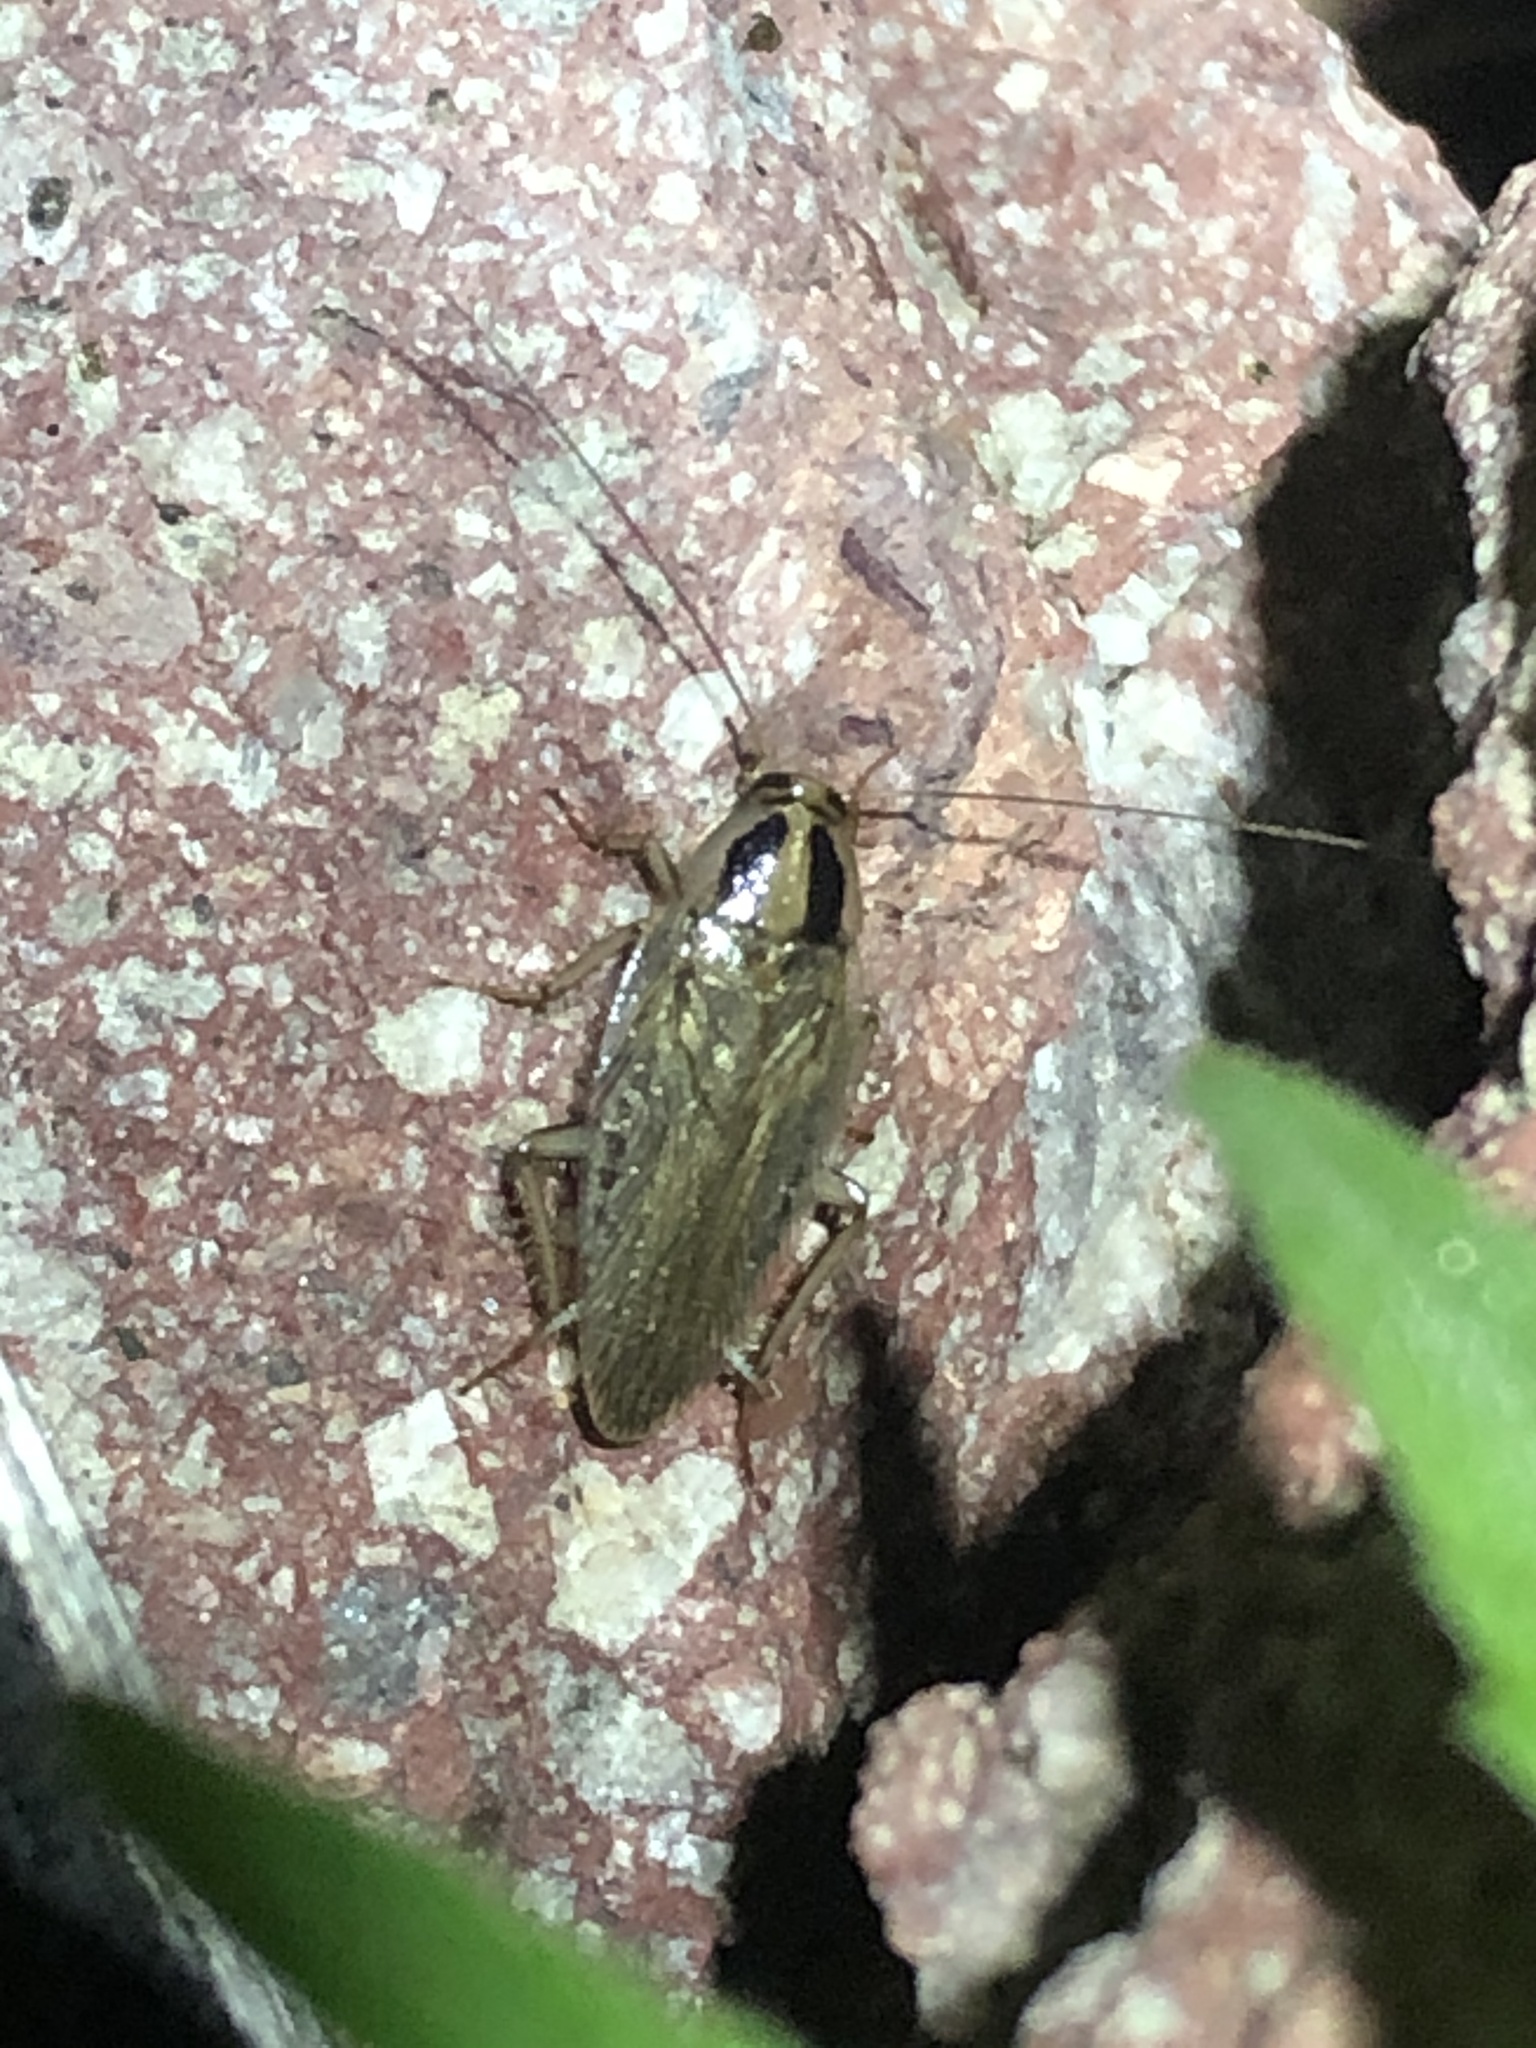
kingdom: Animalia
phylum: Arthropoda
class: Insecta
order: Blattodea
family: Ectobiidae
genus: Blattella
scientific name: Blattella vaga
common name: Field cockroach
